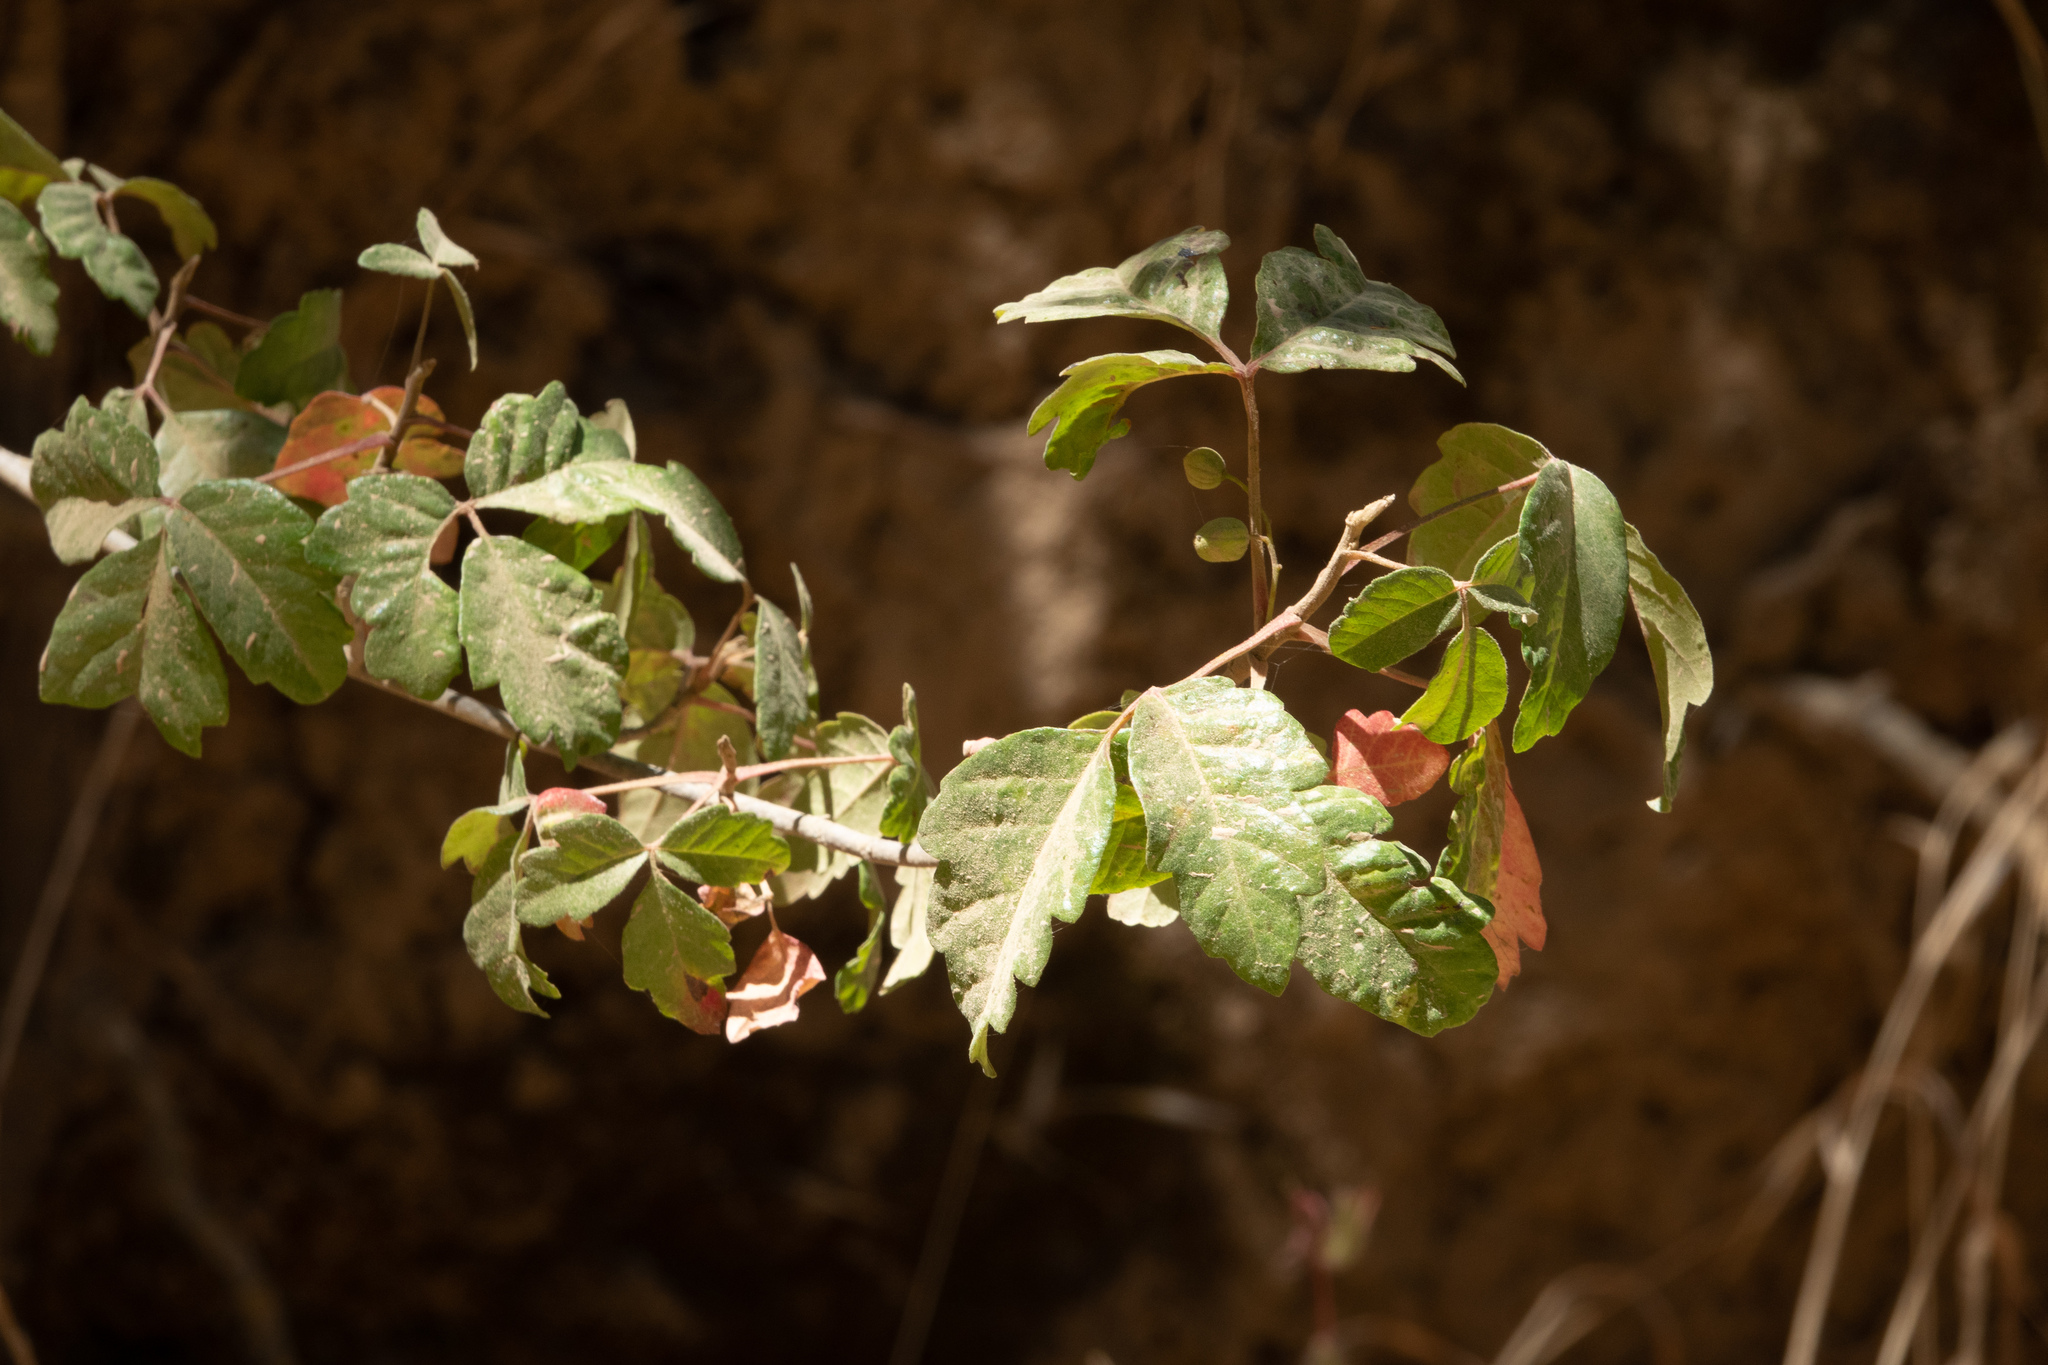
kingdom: Plantae
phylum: Tracheophyta
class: Magnoliopsida
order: Sapindales
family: Anacardiaceae
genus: Toxicodendron
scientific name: Toxicodendron diversilobum
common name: Pacific poison-oak
